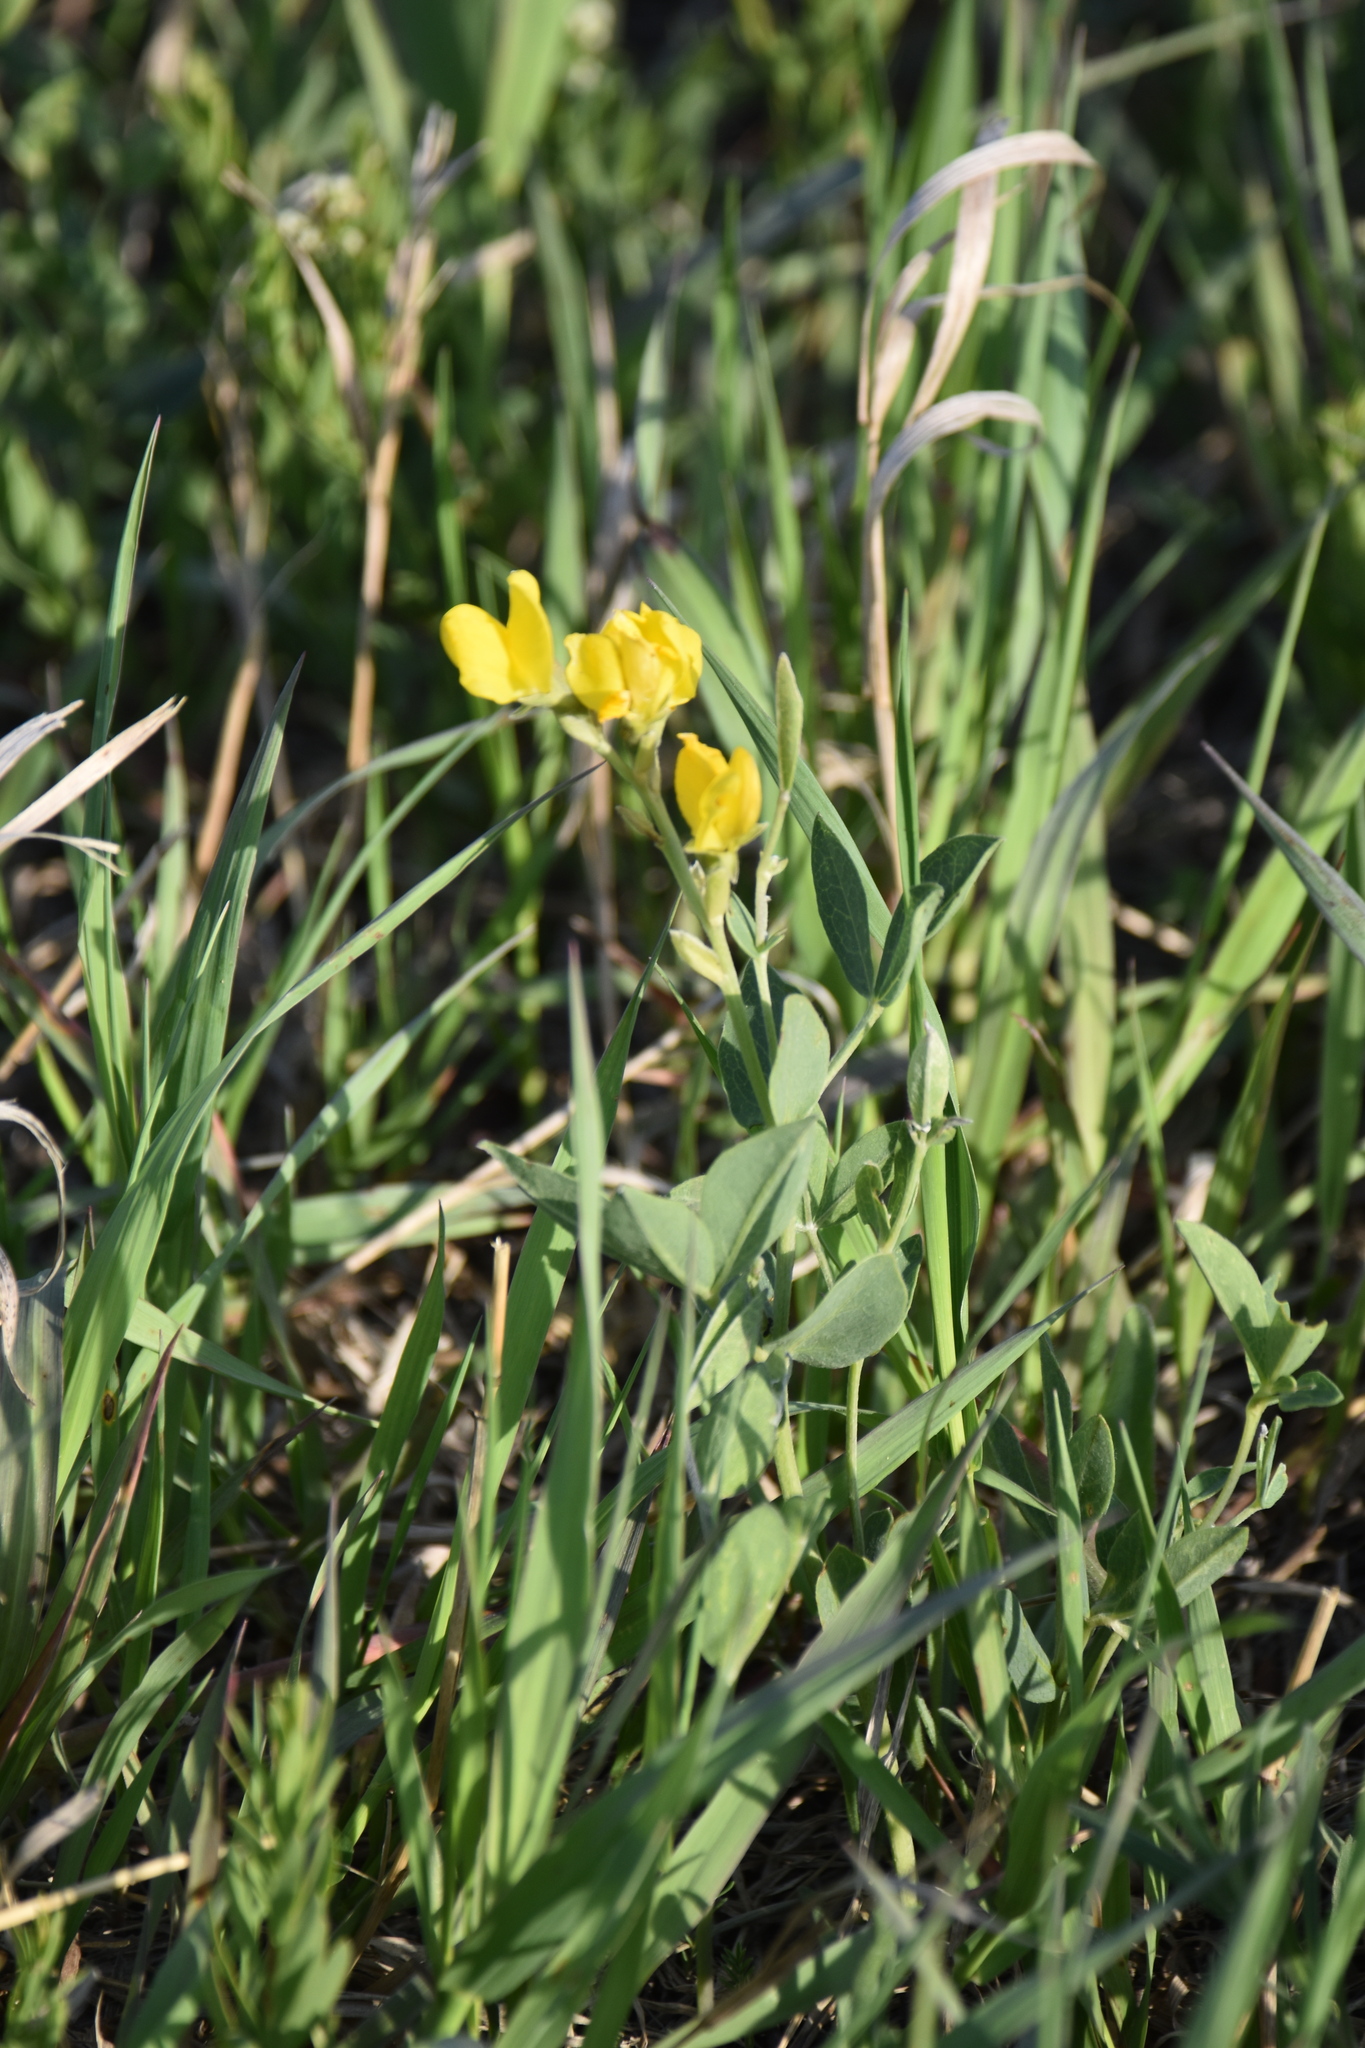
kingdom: Plantae
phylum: Tracheophyta
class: Magnoliopsida
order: Fabales
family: Fabaceae
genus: Thermopsis
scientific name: Thermopsis rhombifolia
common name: Circle-pod-pea
